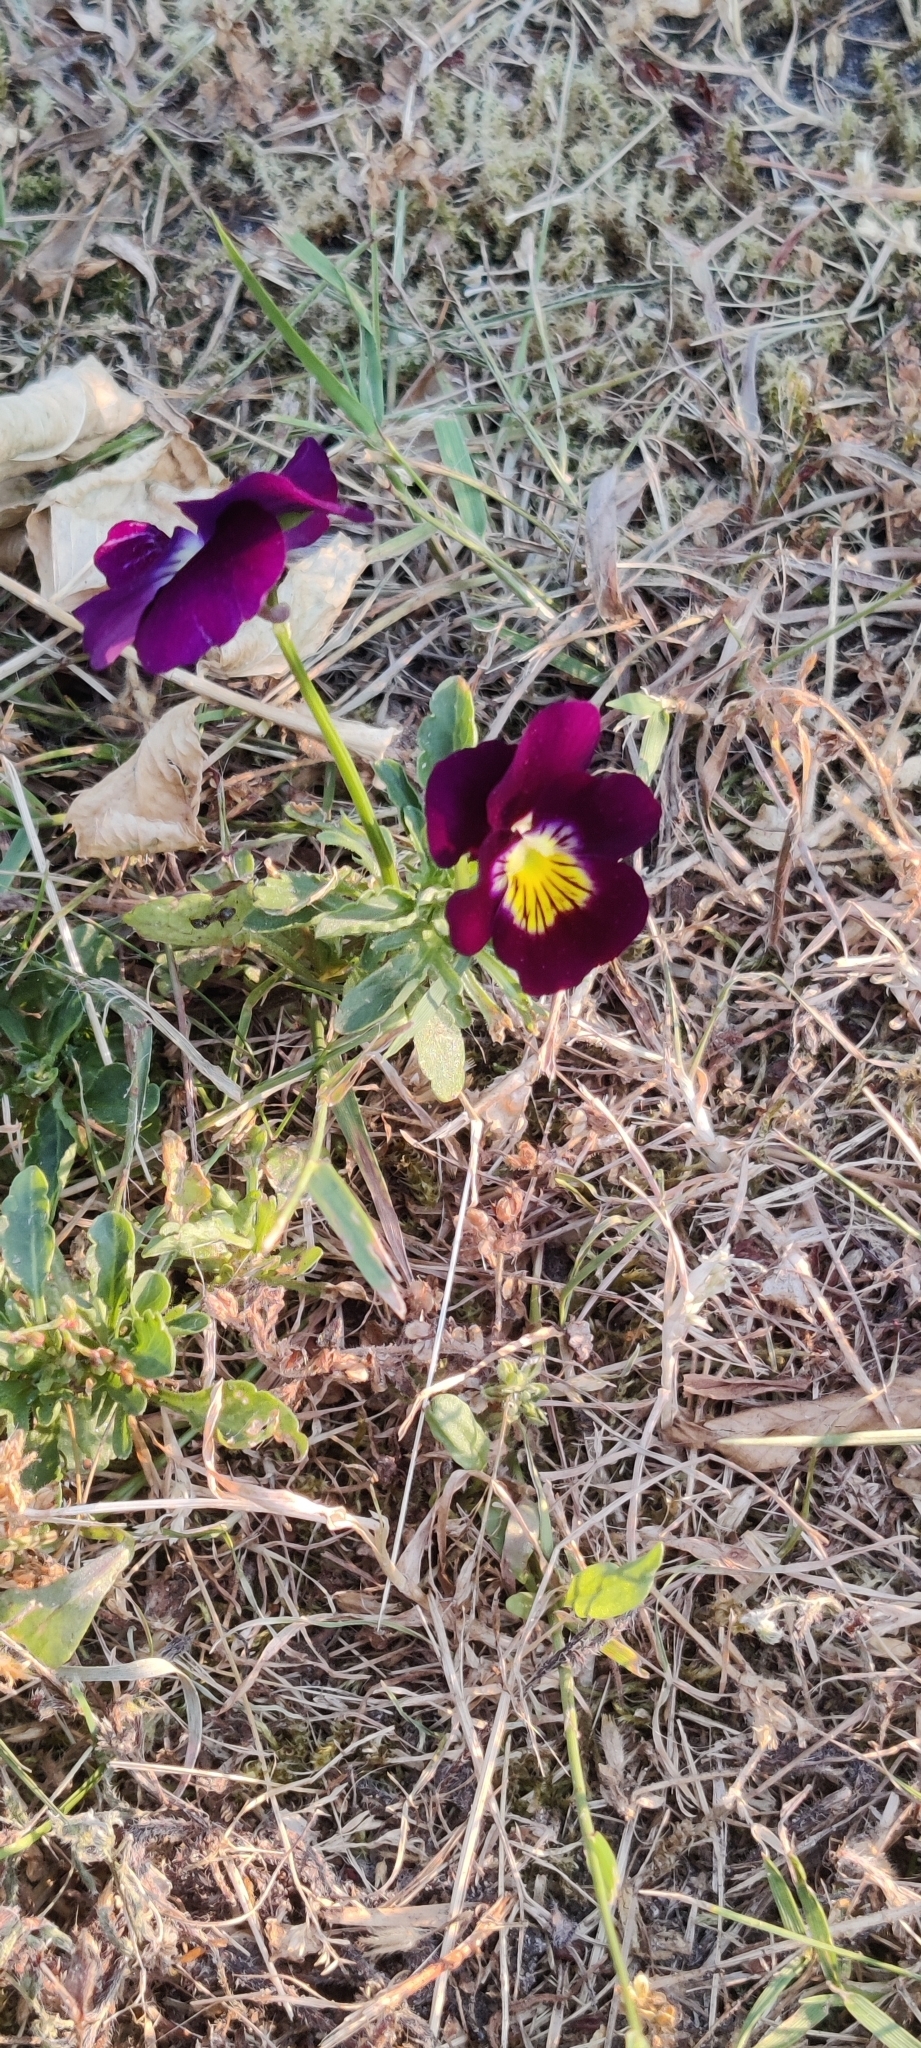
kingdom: Plantae
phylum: Tracheophyta
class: Magnoliopsida
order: Malpighiales
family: Violaceae
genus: Viola
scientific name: Viola williamsii
